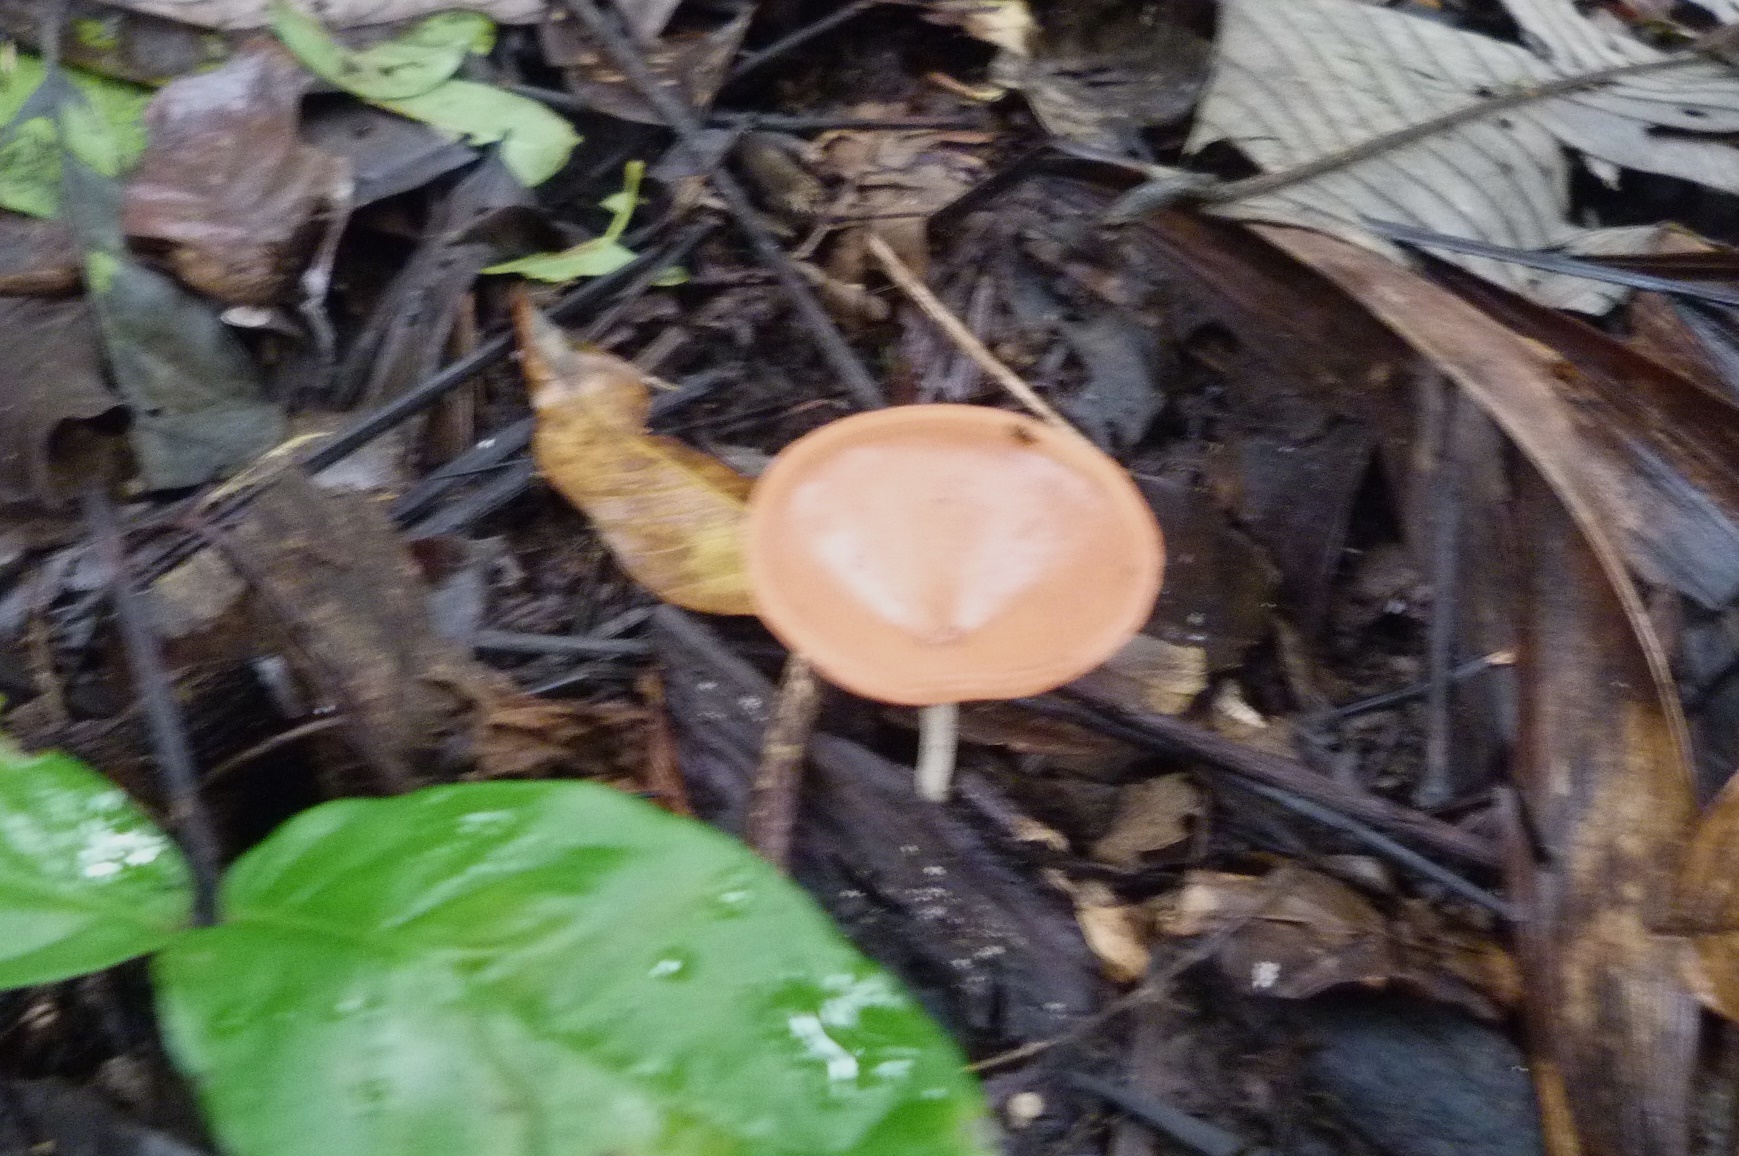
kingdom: Fungi
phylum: Ascomycota
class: Pezizomycetes
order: Pezizales
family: Sarcoscyphaceae
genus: Cookeina
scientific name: Cookeina speciosa
